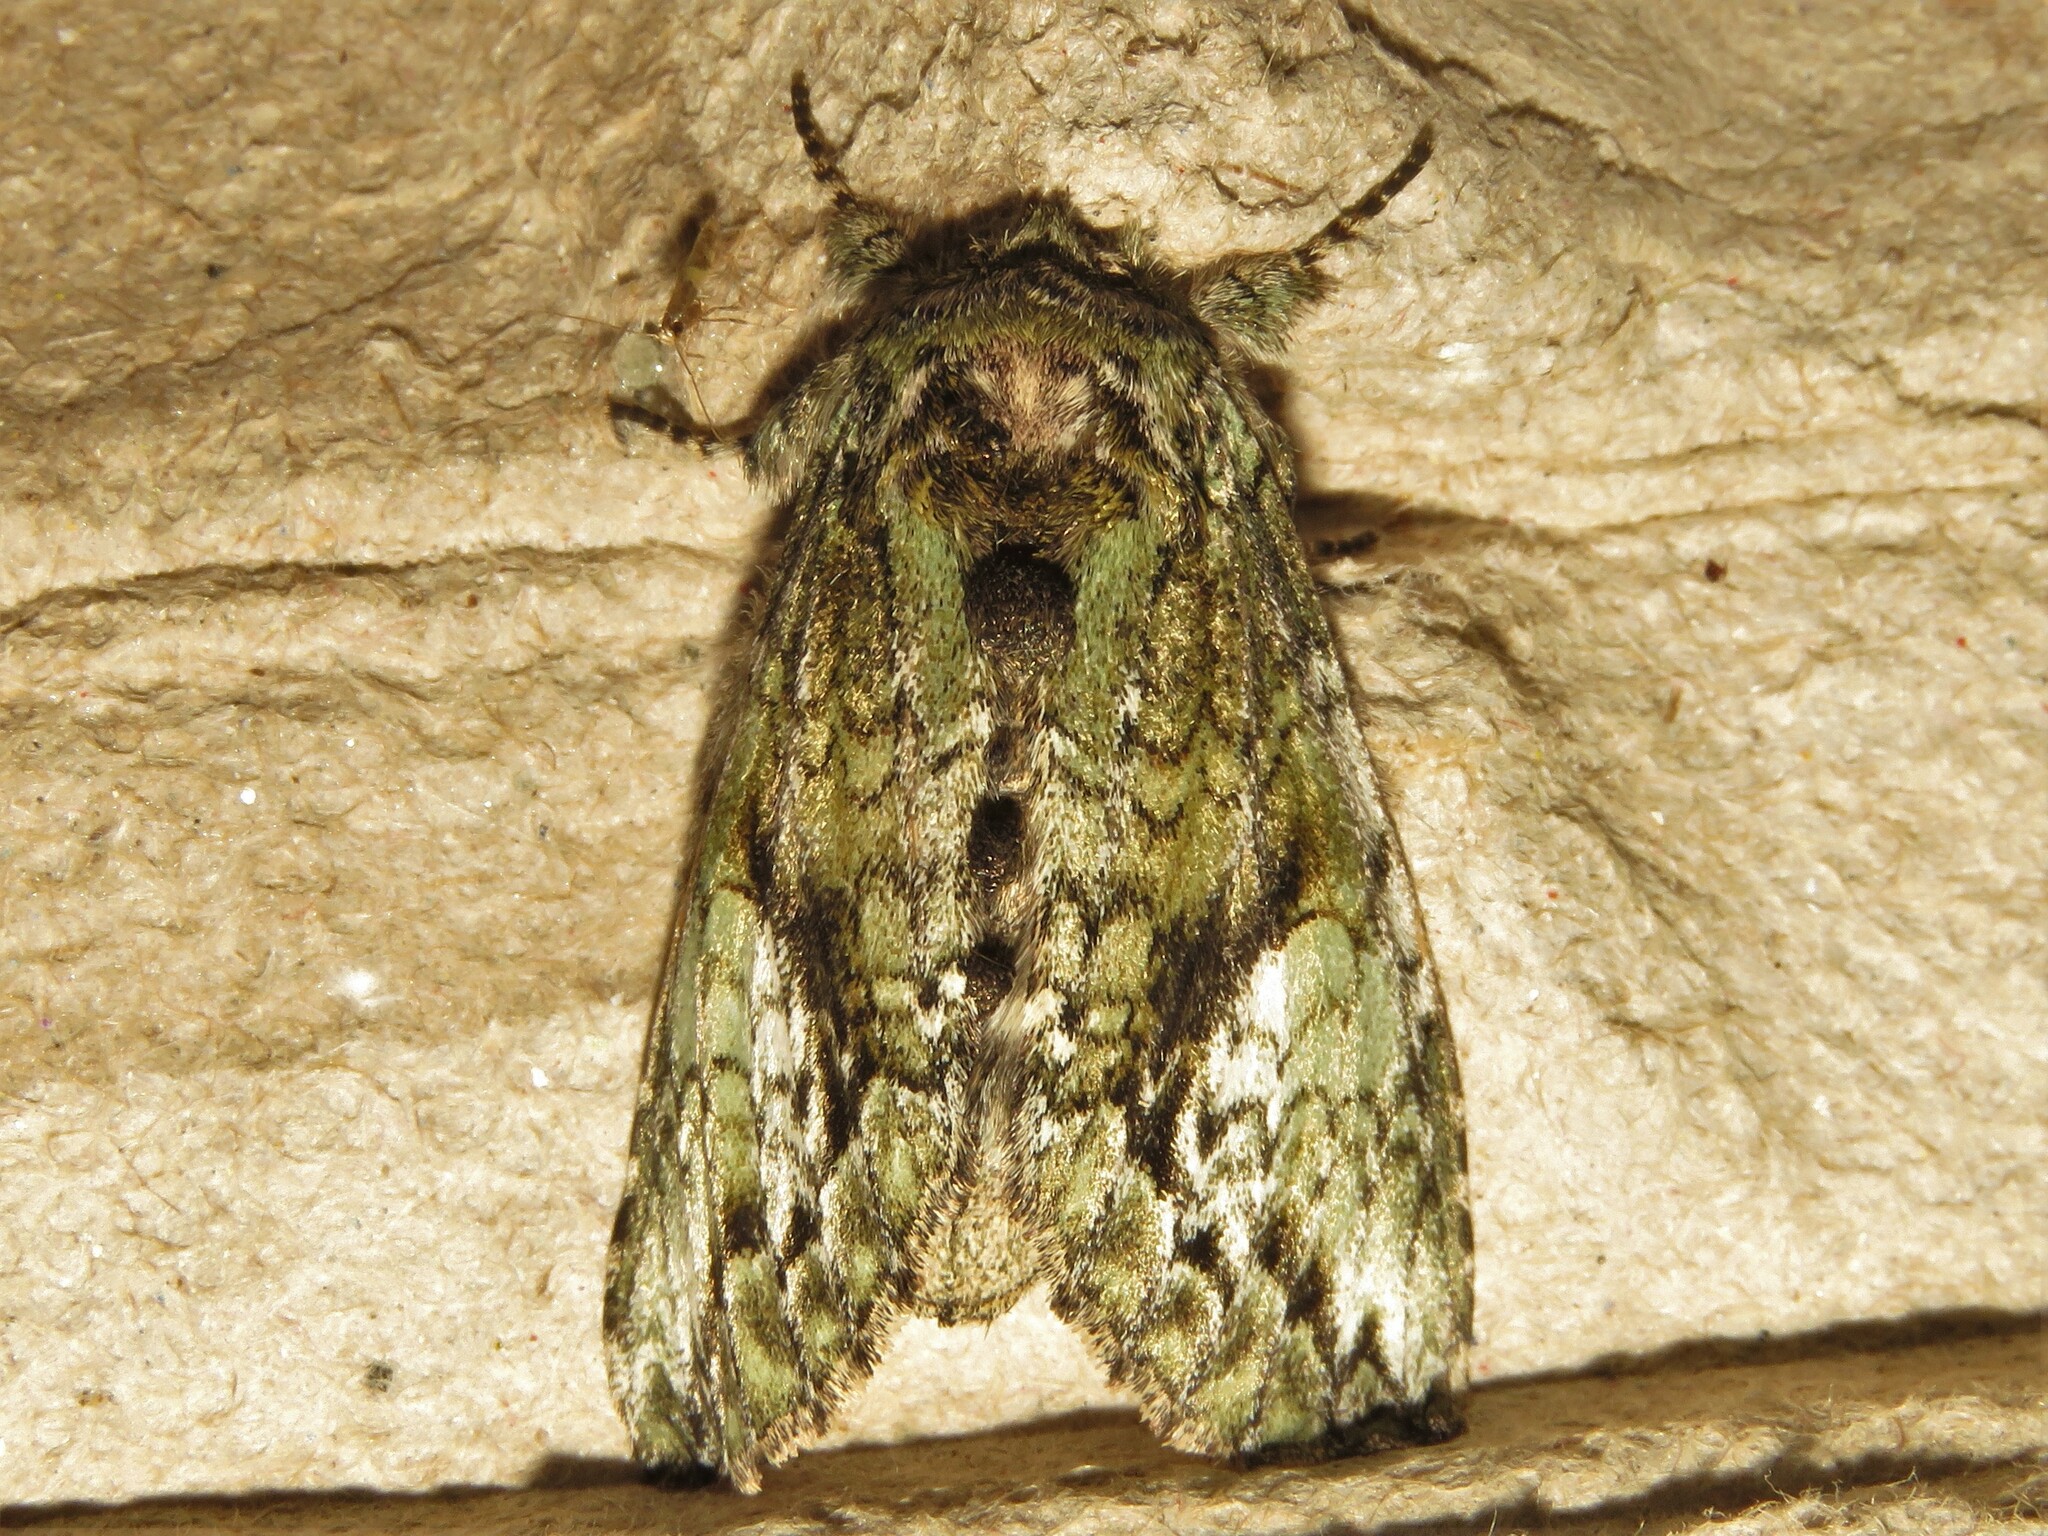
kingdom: Animalia
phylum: Arthropoda
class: Insecta
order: Lepidoptera
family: Notodontidae
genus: Heterocampa
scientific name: Heterocampa
